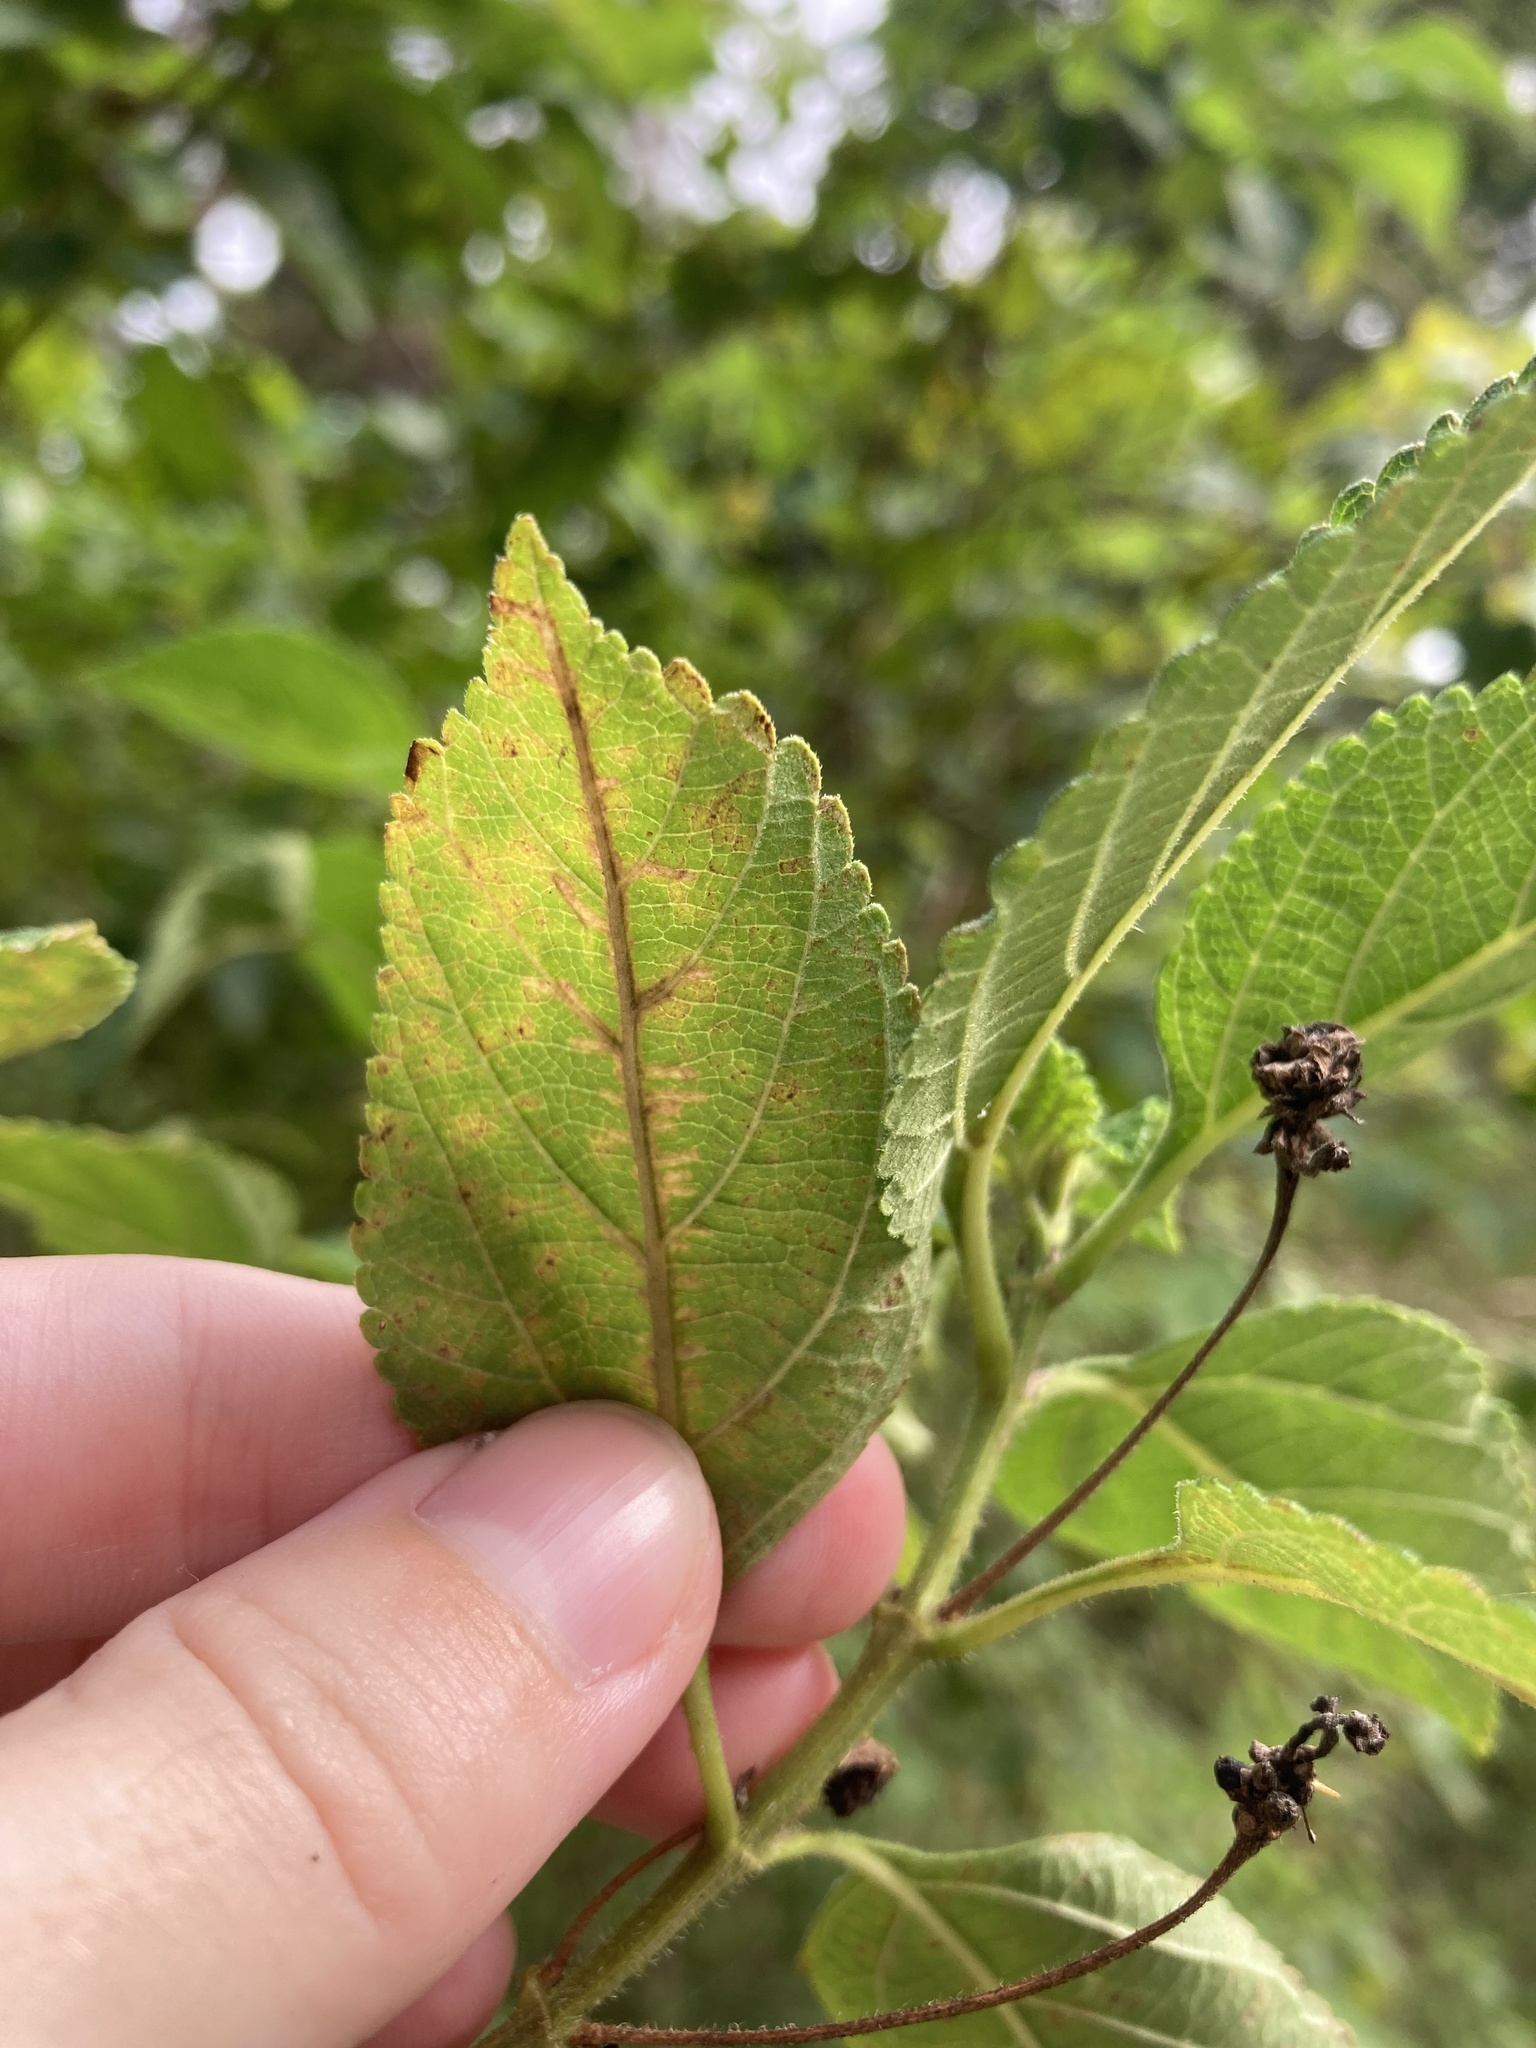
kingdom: Animalia
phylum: Arthropoda
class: Insecta
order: Diptera
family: Agromyzidae
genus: Ophiomyia
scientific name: Ophiomyia camarae
